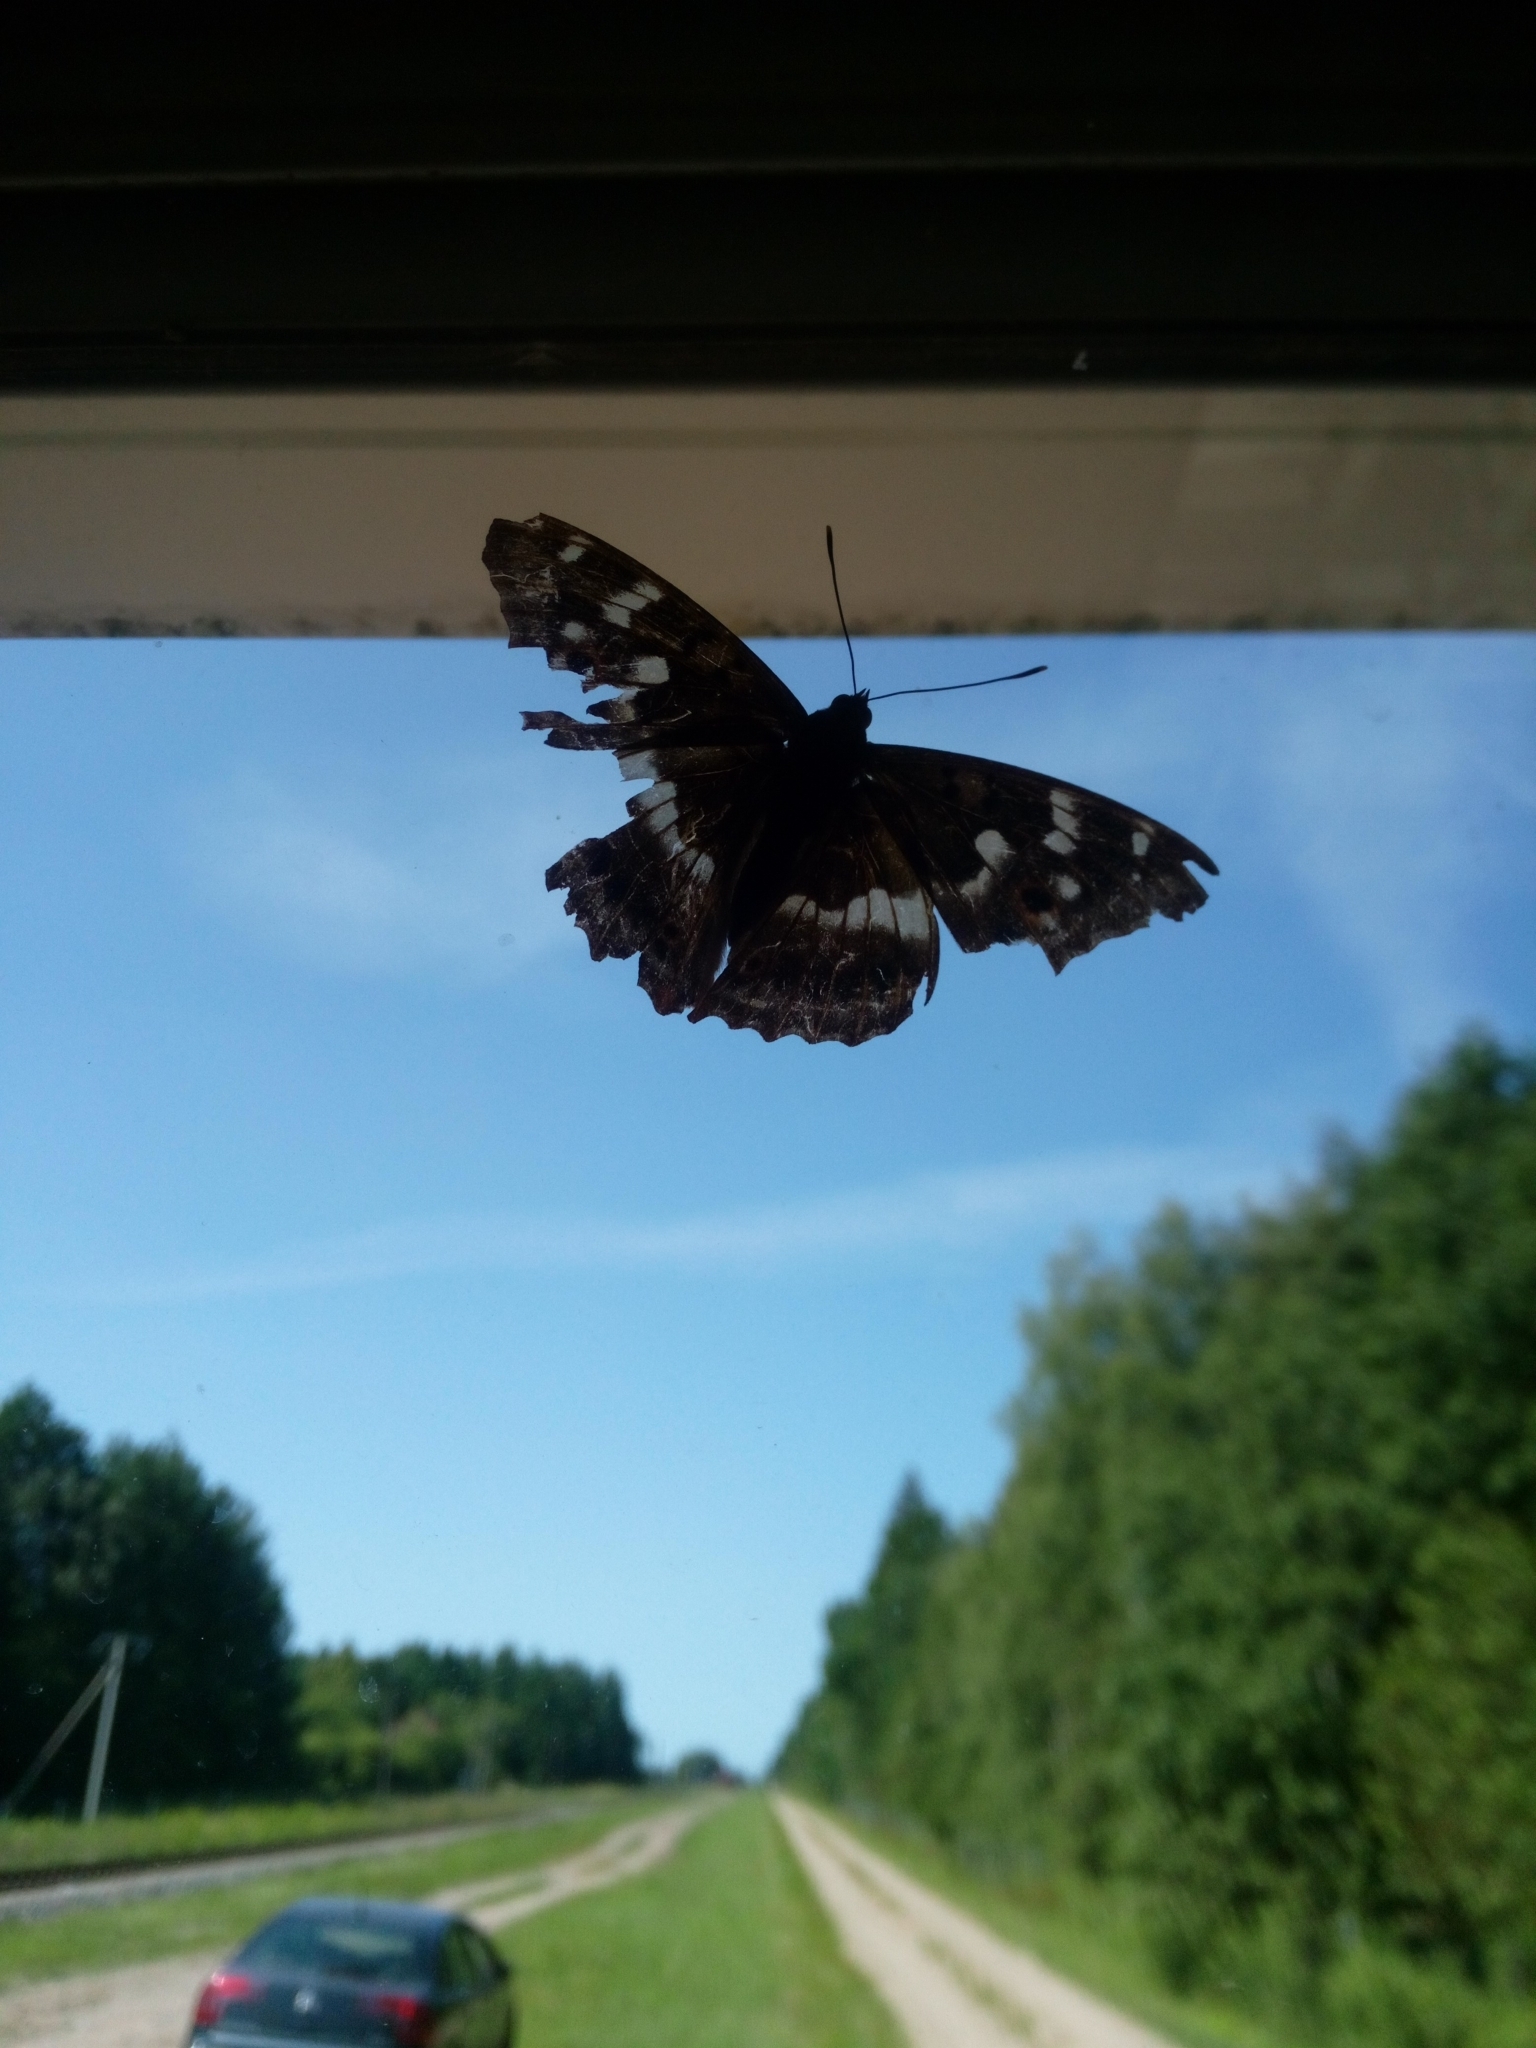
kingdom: Animalia
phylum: Arthropoda
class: Insecta
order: Lepidoptera
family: Nymphalidae
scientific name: Nymphalidae
